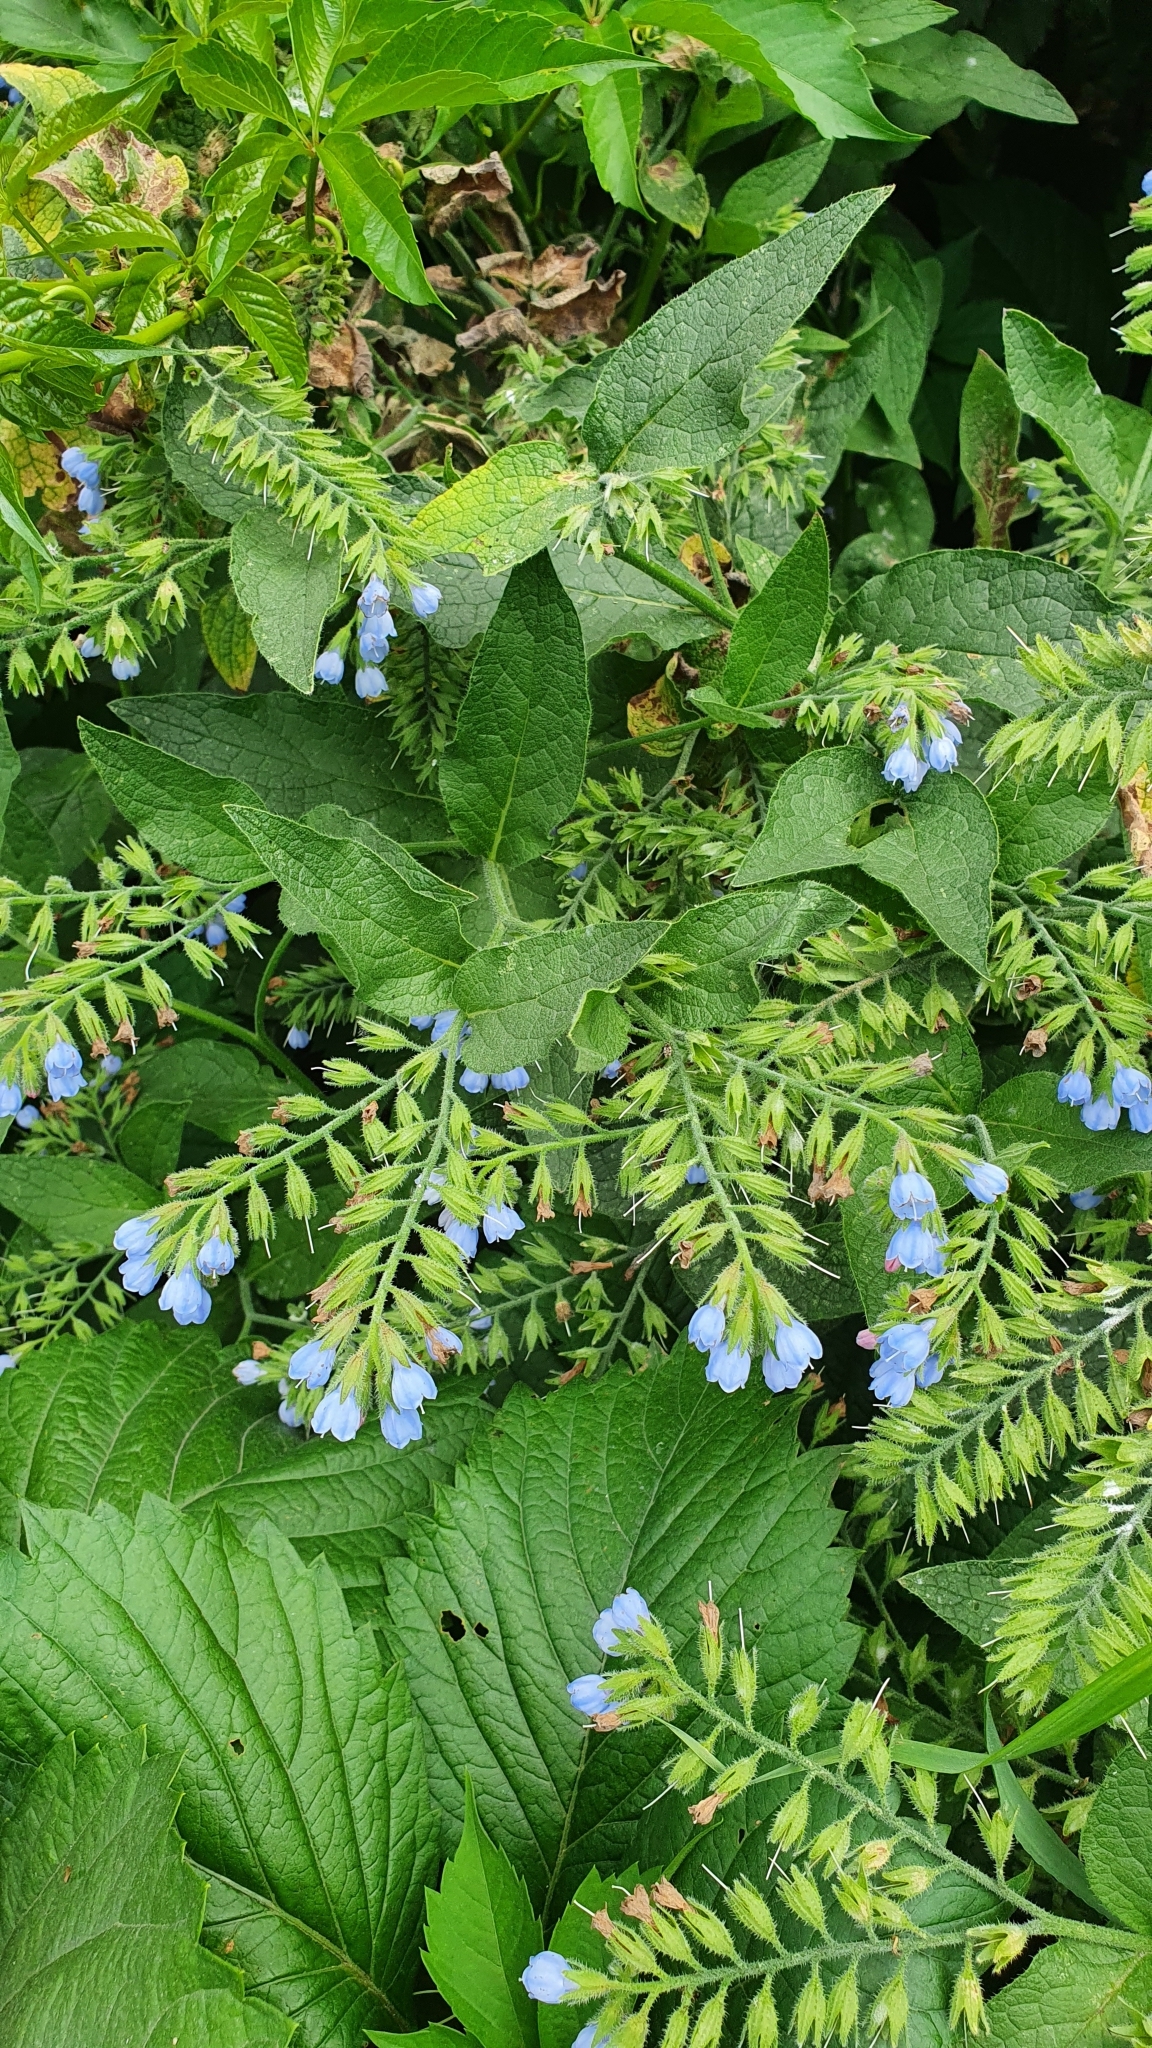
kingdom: Plantae
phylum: Tracheophyta
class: Magnoliopsida
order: Boraginales
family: Boraginaceae
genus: Symphytum
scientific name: Symphytum caucasicum
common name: Caucasian comfrey
